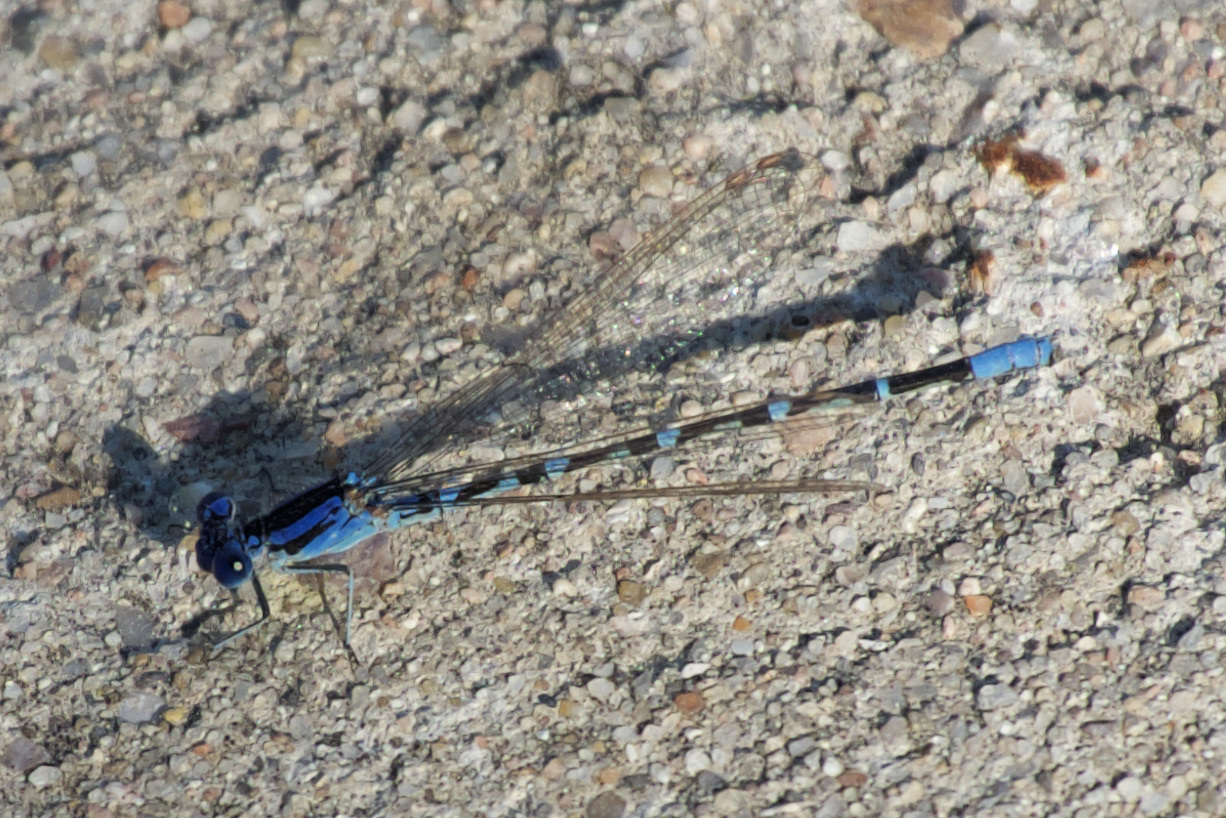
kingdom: Animalia
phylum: Arthropoda
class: Insecta
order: Odonata
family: Coenagrionidae
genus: Argia
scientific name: Argia sedula
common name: Blue-ringed dancer
